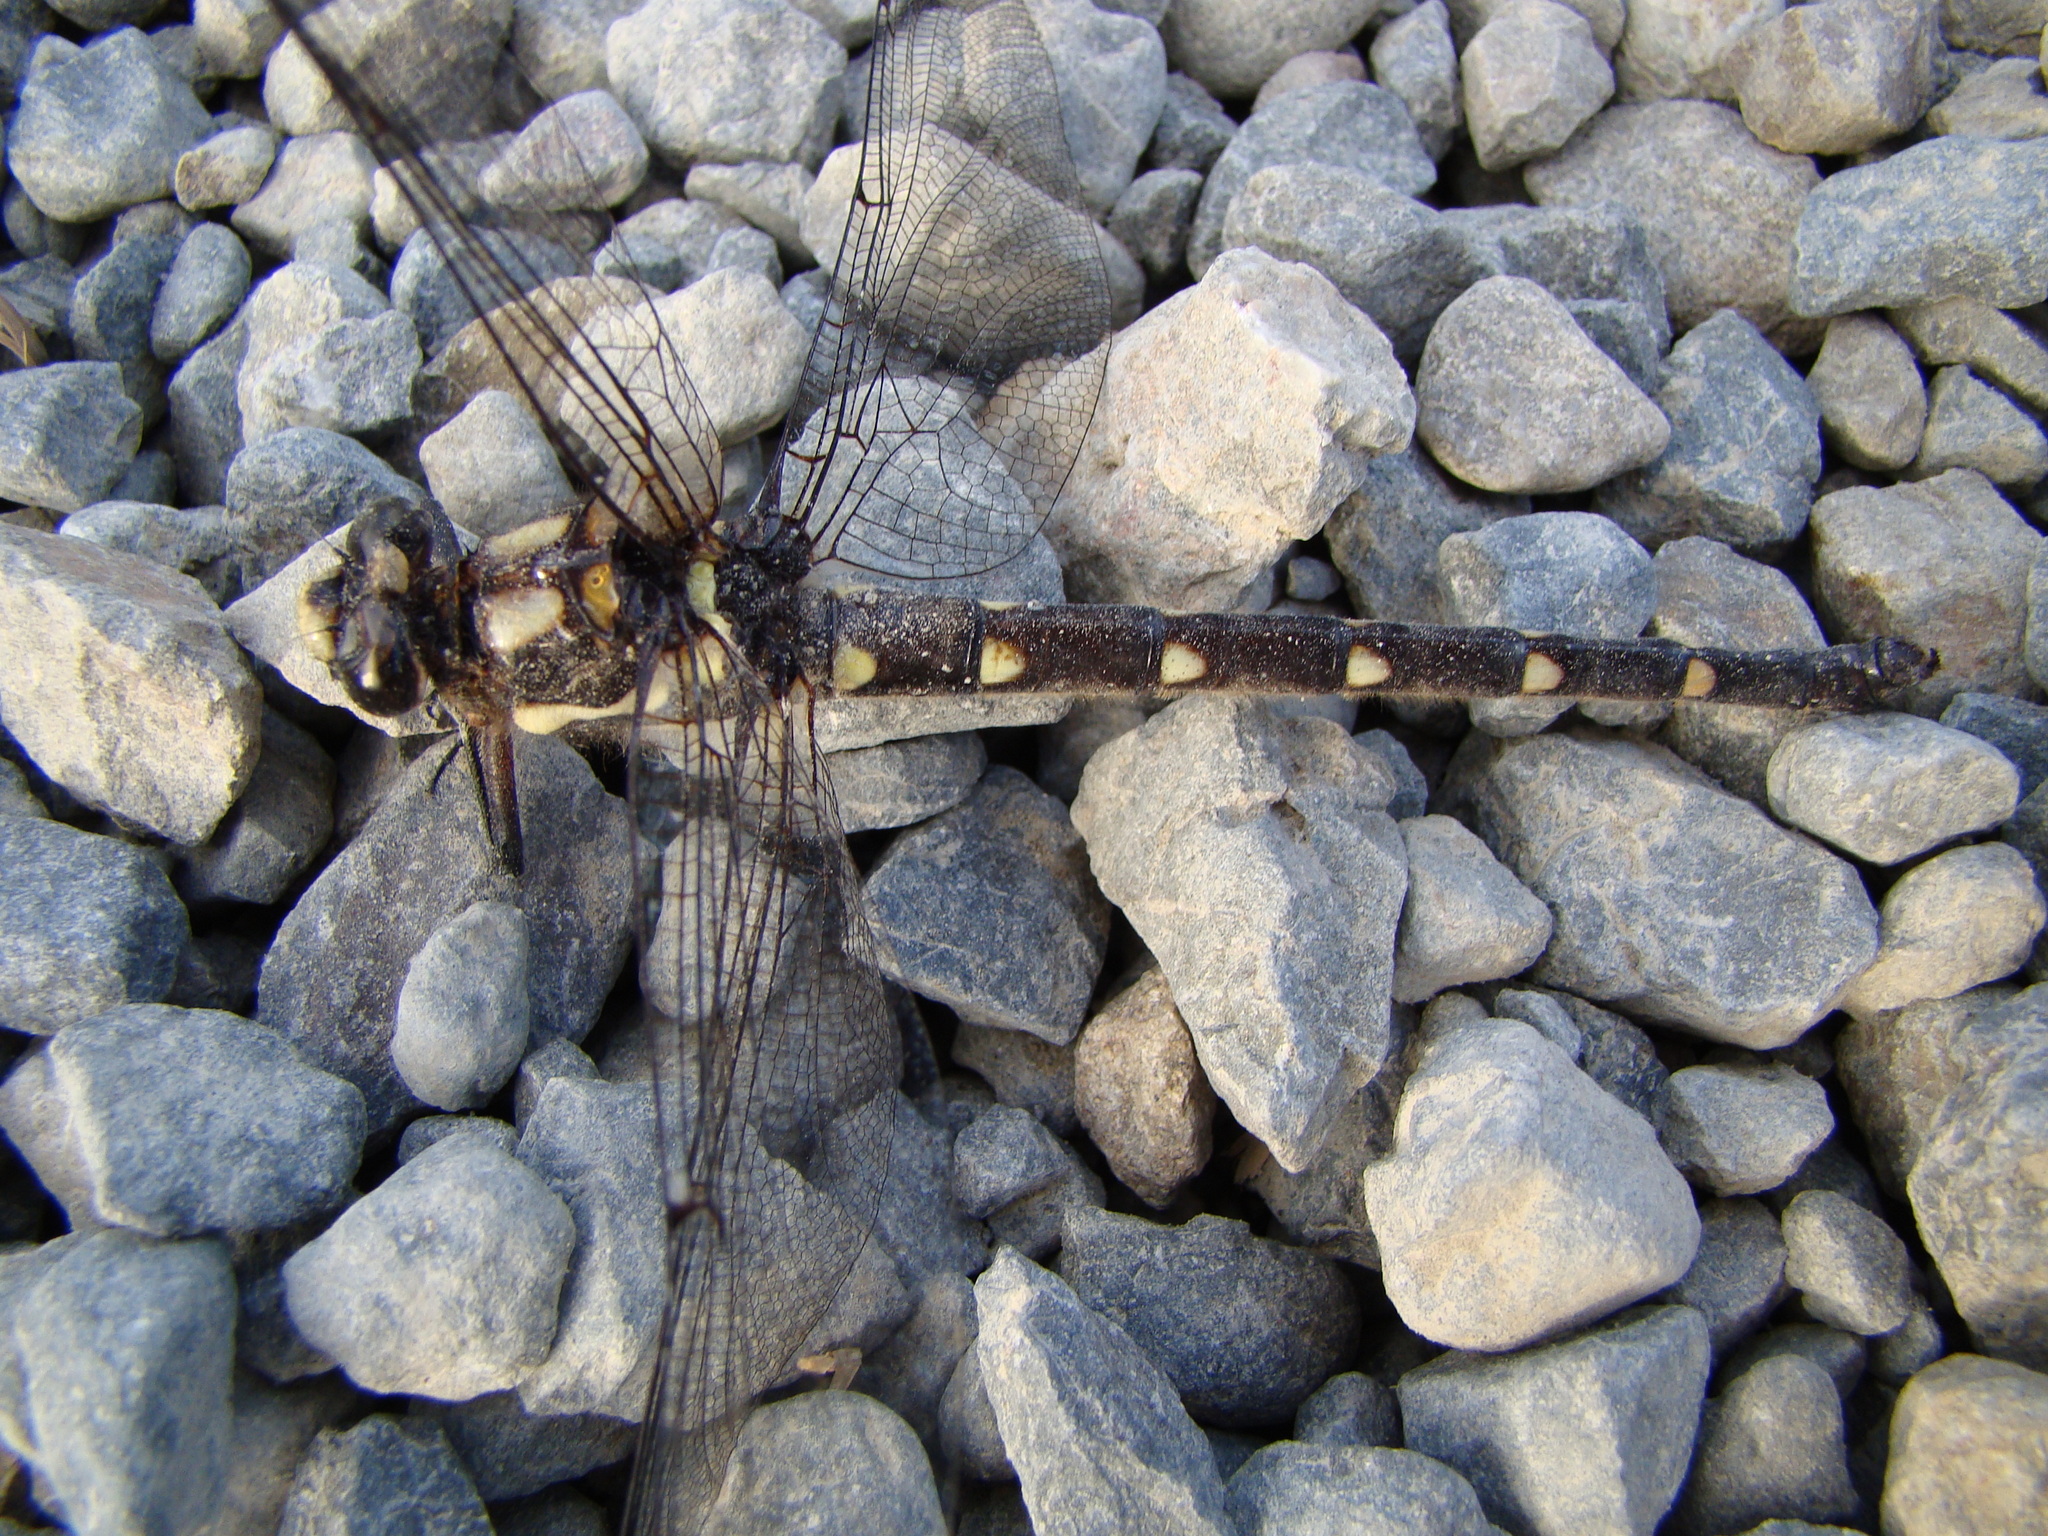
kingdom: Animalia
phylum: Arthropoda
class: Insecta
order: Odonata
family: Petaluridae
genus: Uropetala
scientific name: Uropetala carovei
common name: Bush giant dragonfly
